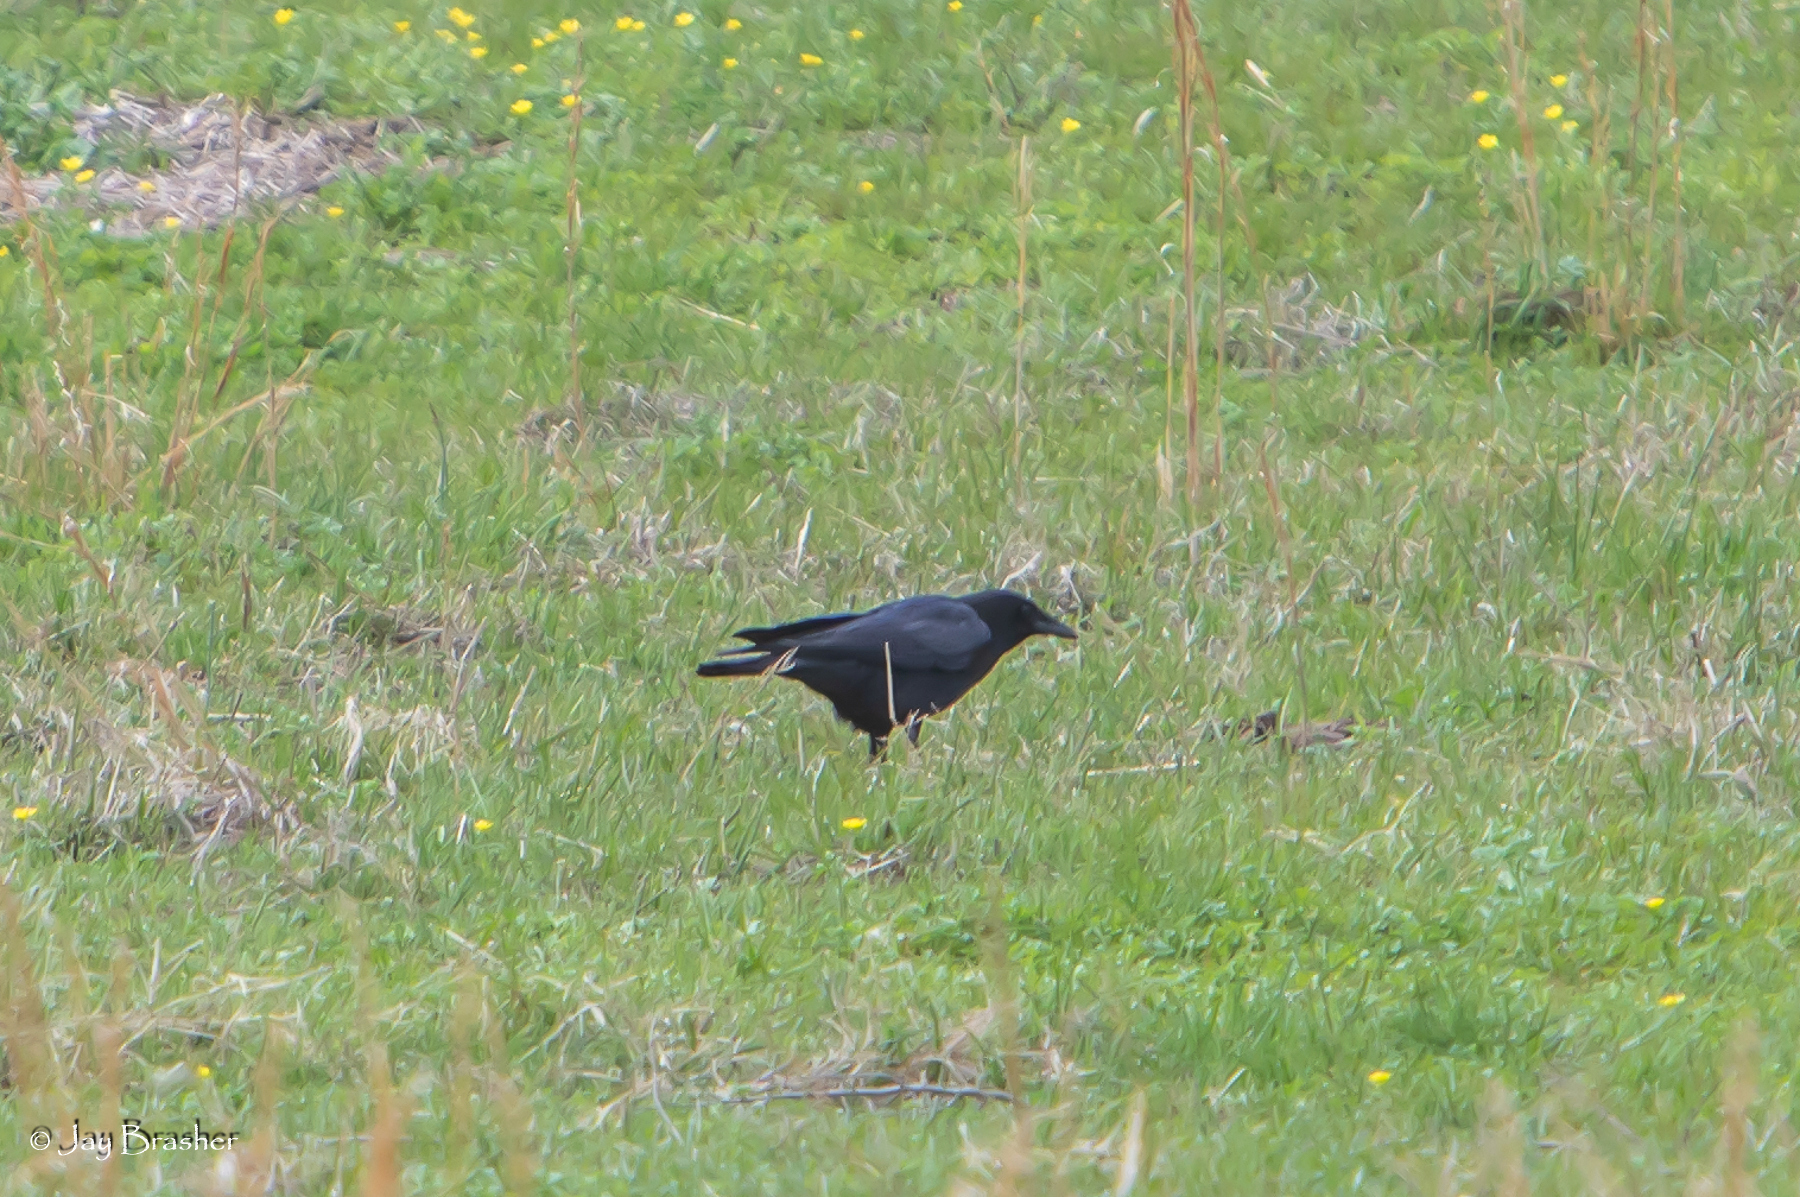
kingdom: Animalia
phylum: Chordata
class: Aves
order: Passeriformes
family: Corvidae
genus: Corvus
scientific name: Corvus brachyrhynchos
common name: American crow
